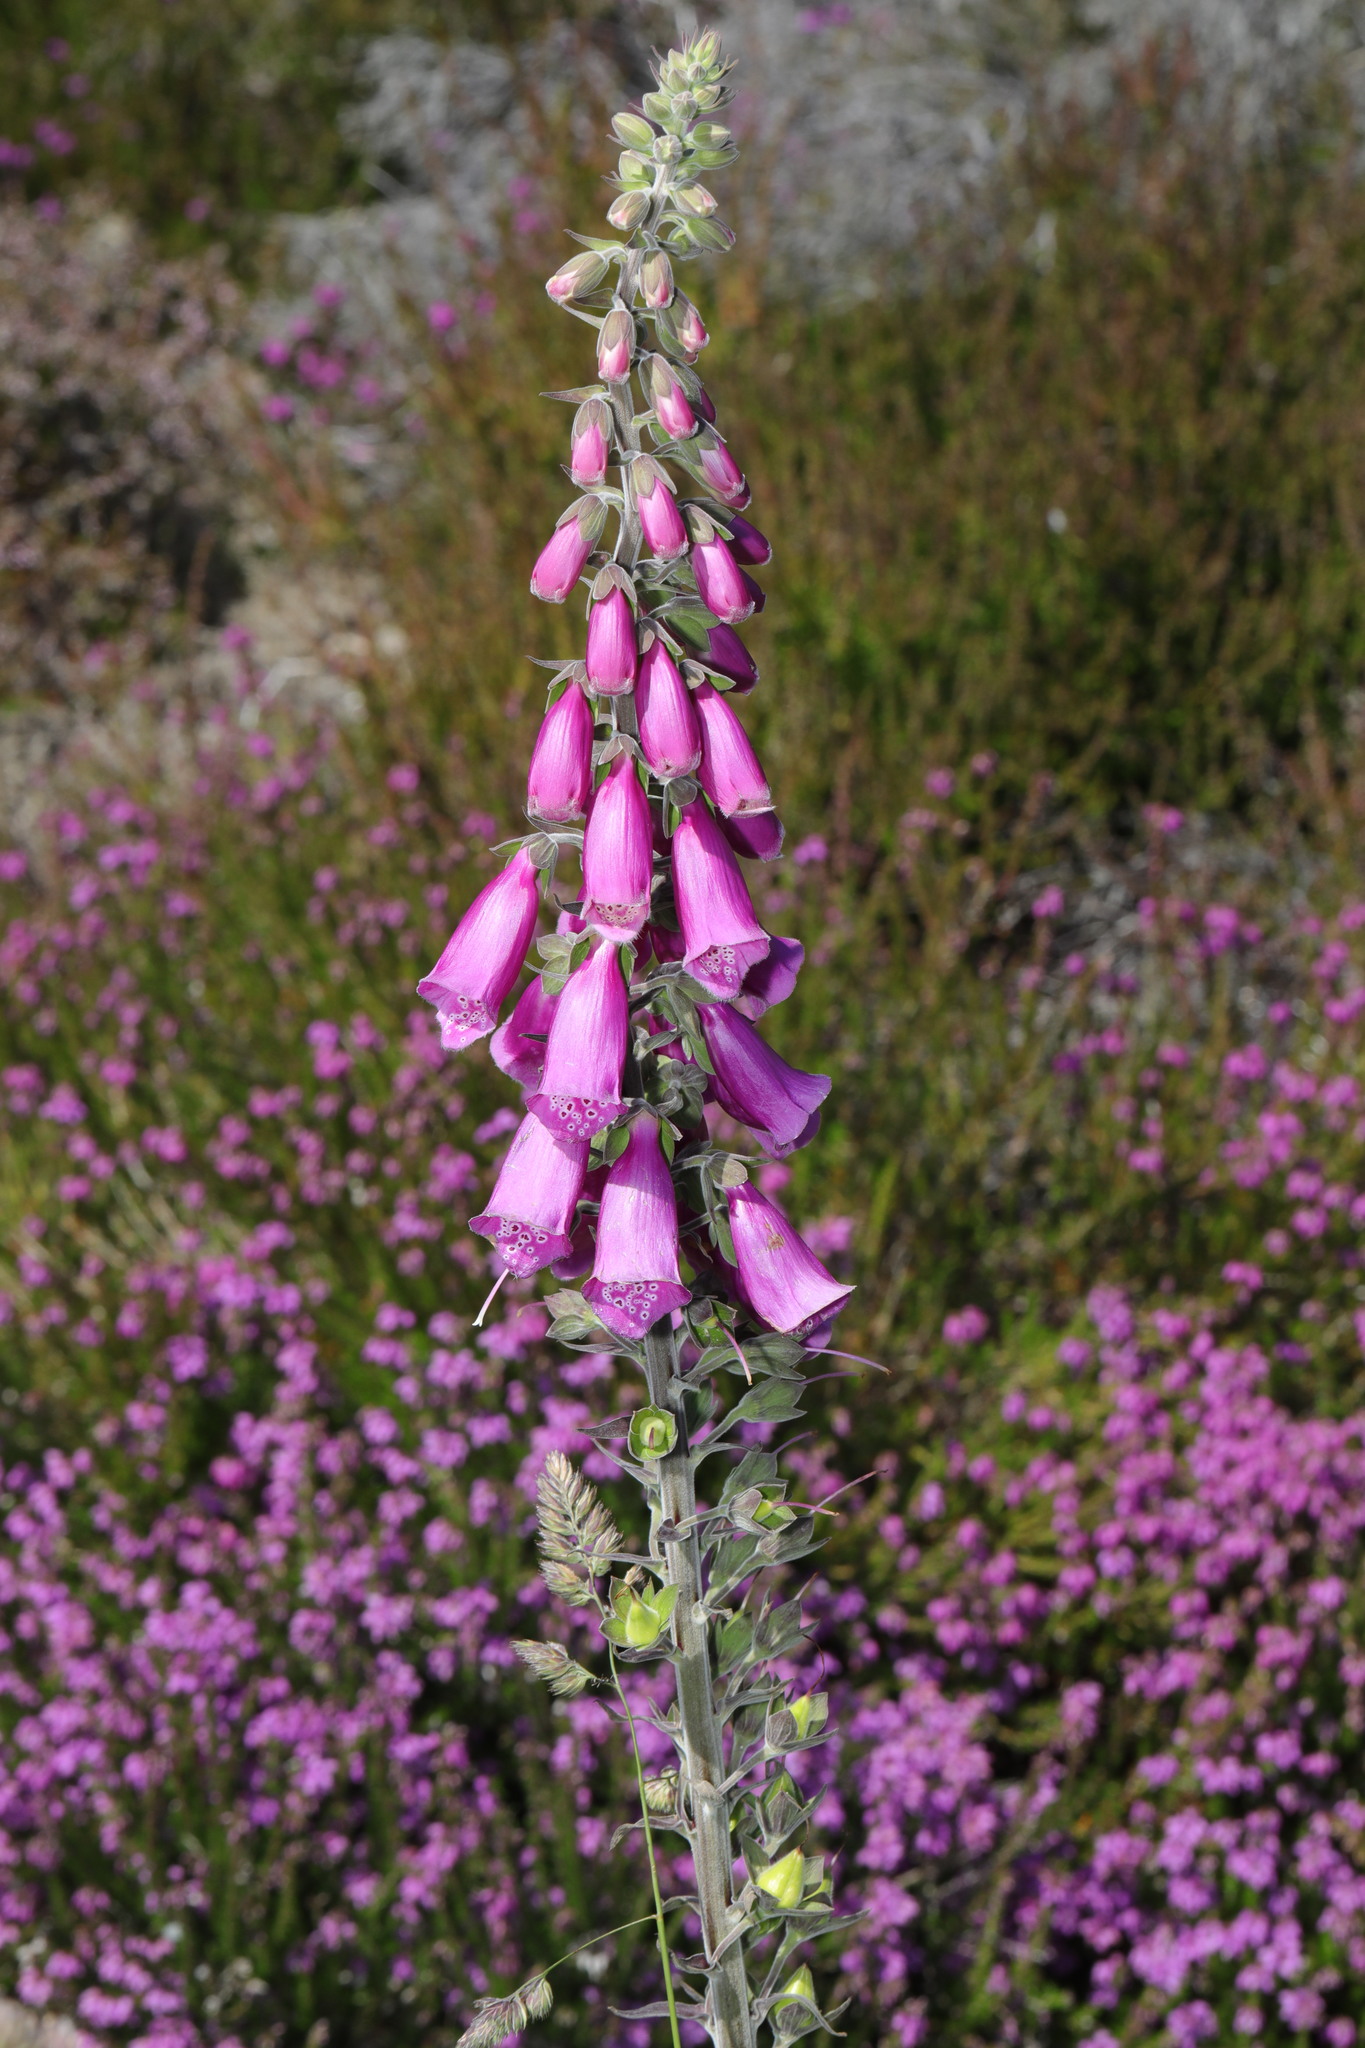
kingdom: Plantae
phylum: Tracheophyta
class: Magnoliopsida
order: Lamiales
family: Plantaginaceae
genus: Digitalis
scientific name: Digitalis purpurea
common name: Foxglove
